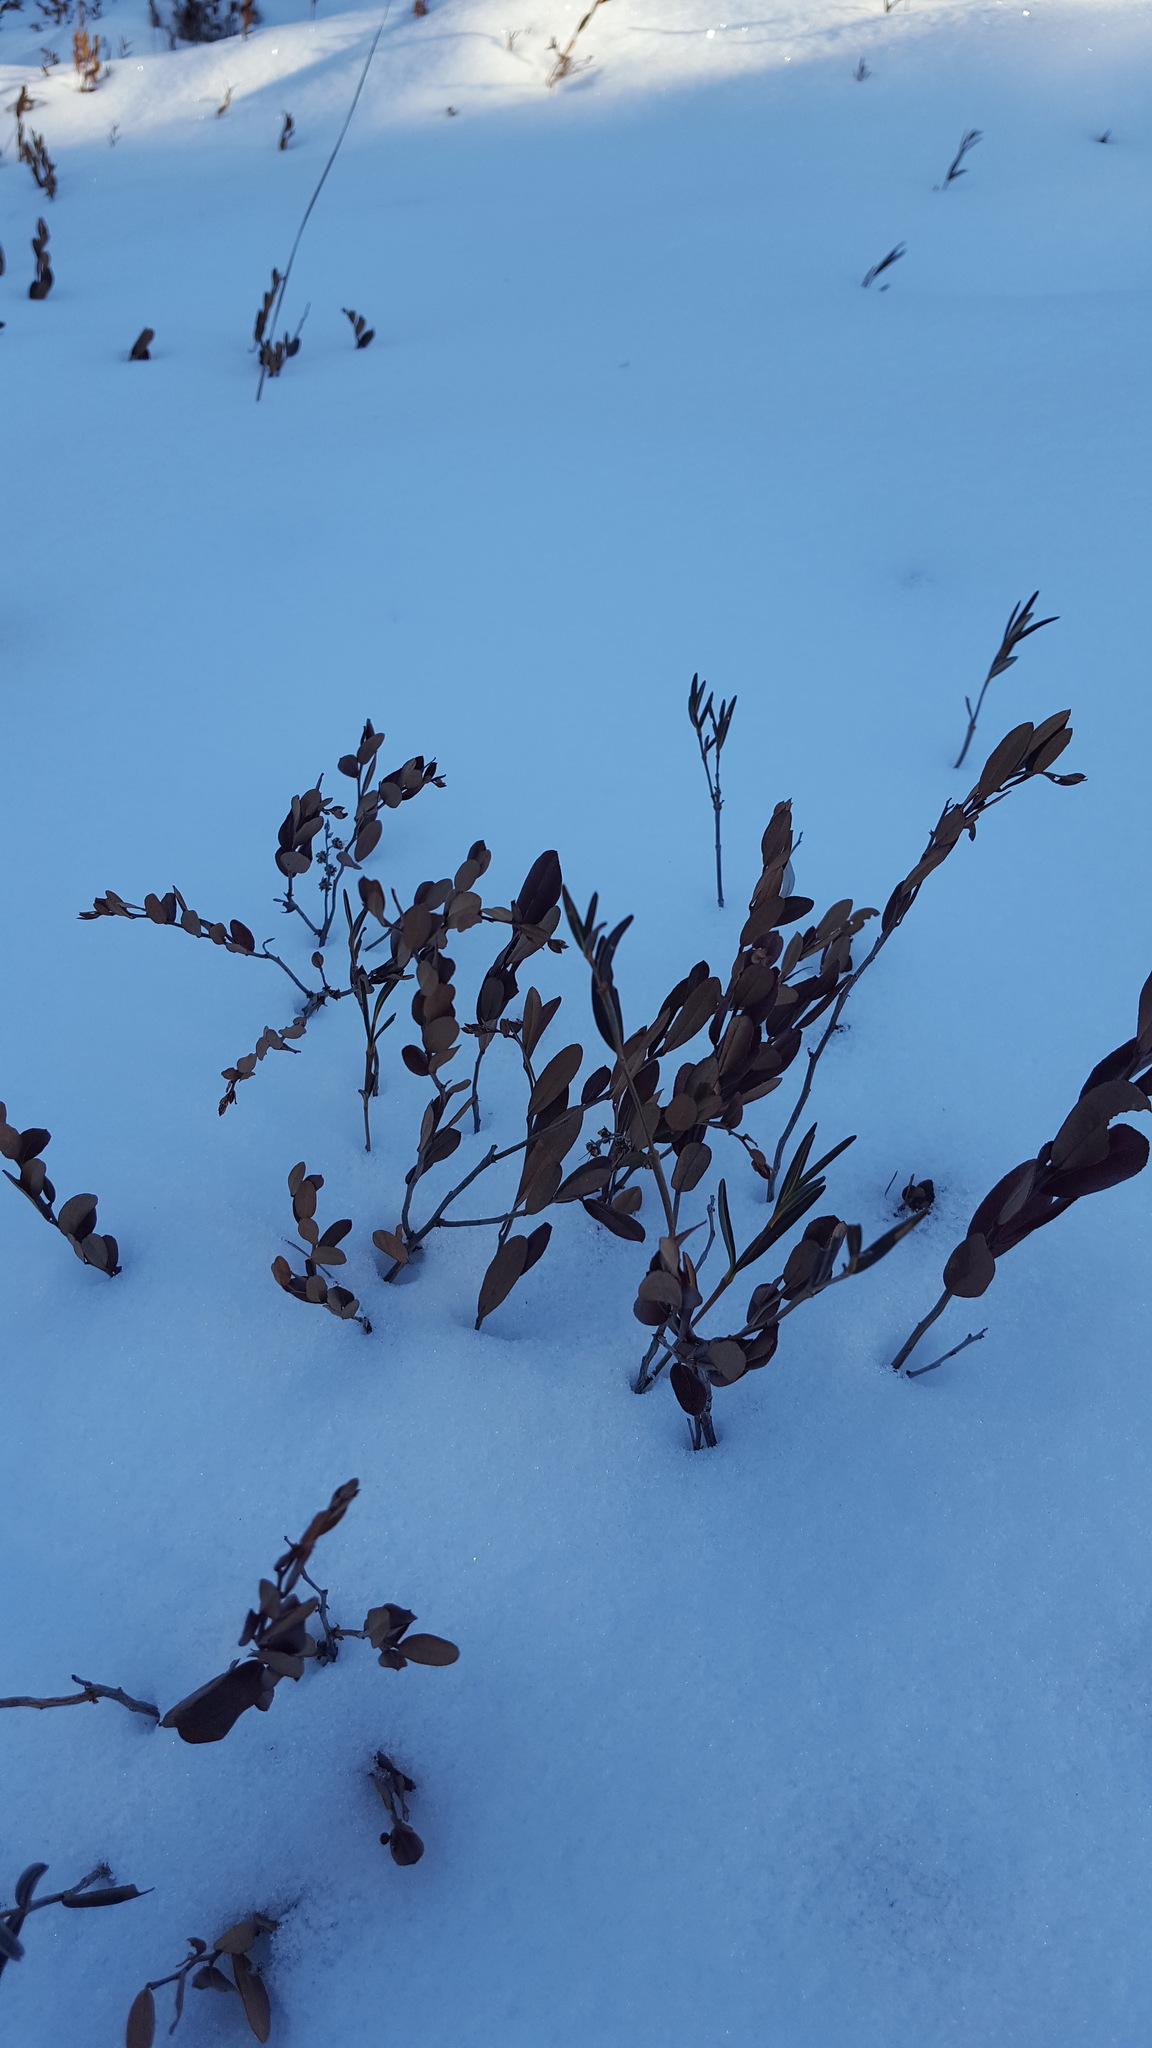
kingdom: Plantae
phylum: Tracheophyta
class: Magnoliopsida
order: Ericales
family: Ericaceae
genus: Chamaedaphne
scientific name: Chamaedaphne calyculata
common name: Leatherleaf
